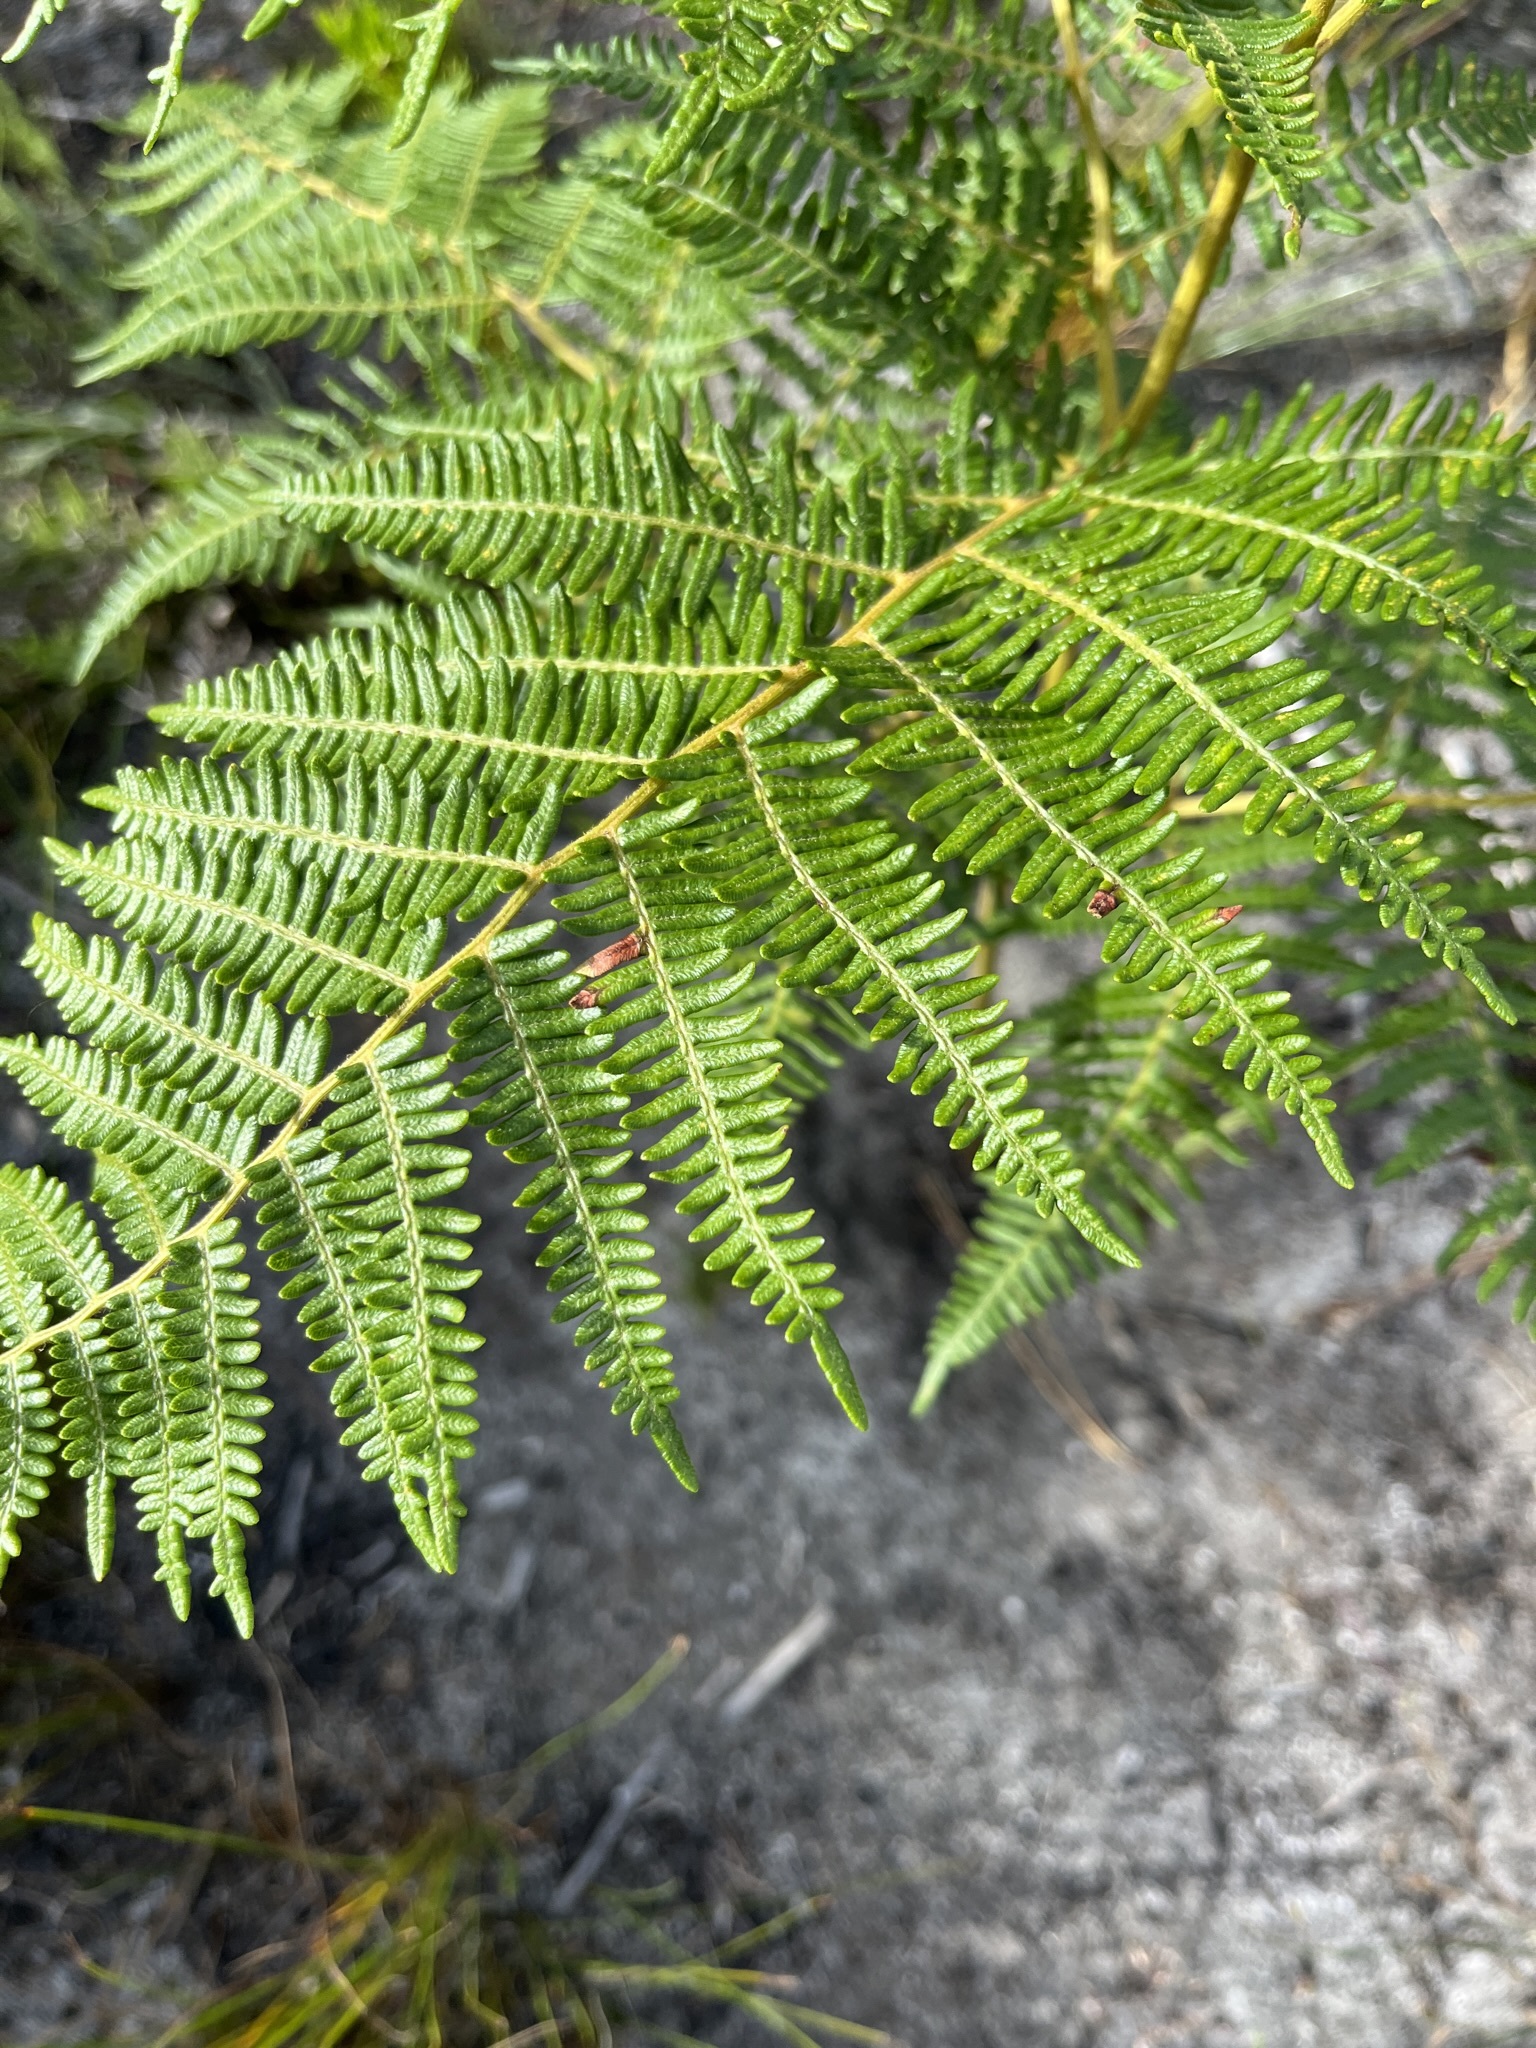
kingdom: Plantae
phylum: Tracheophyta
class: Polypodiopsida
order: Polypodiales
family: Dennstaedtiaceae
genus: Pteridium
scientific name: Pteridium aquilinum
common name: Bracken
